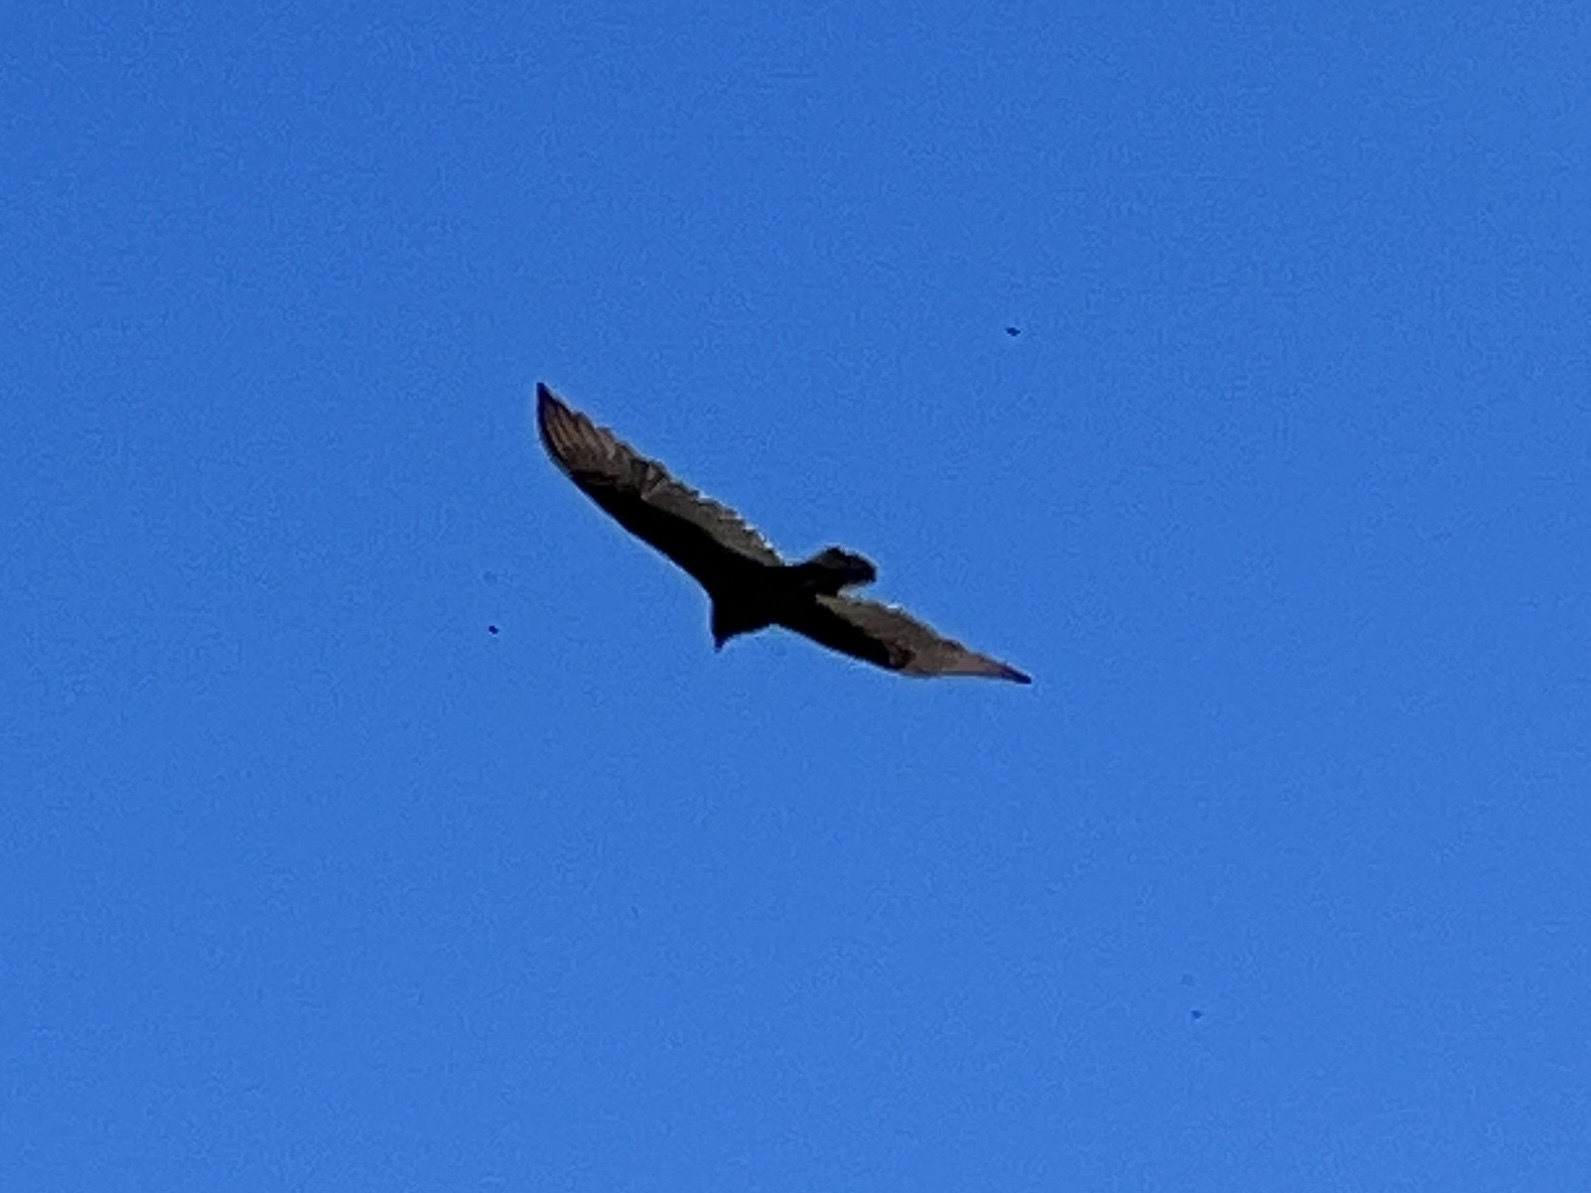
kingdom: Animalia
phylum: Chordata
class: Aves
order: Accipitriformes
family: Cathartidae
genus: Cathartes
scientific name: Cathartes aura
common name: Turkey vulture
